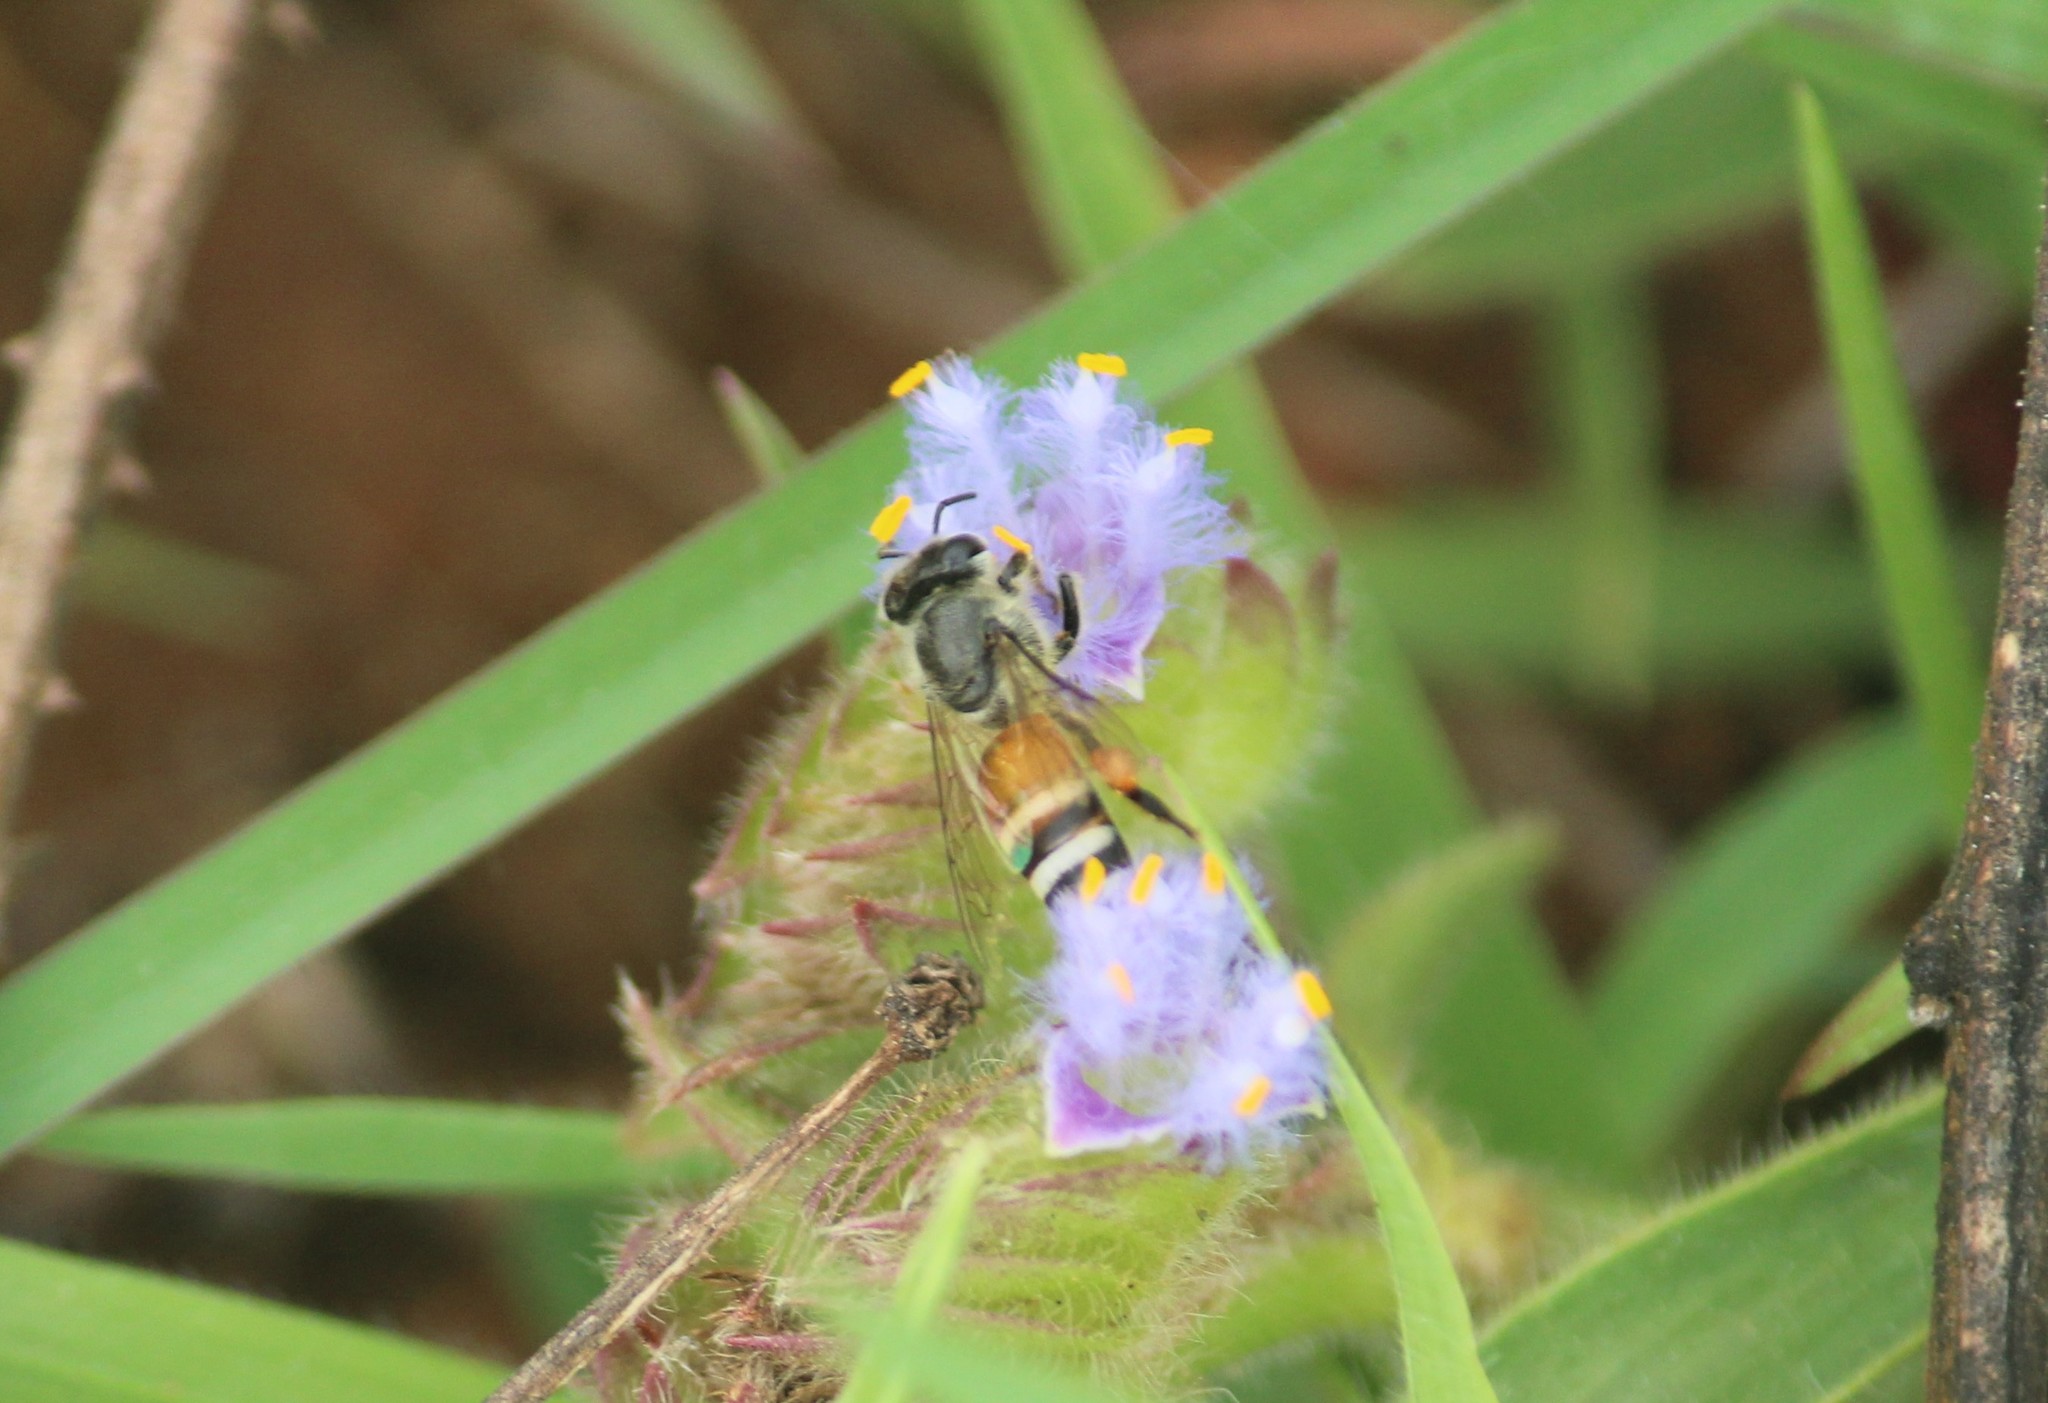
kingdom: Animalia
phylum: Arthropoda
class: Insecta
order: Hymenoptera
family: Apidae
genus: Apis
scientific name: Apis florea
